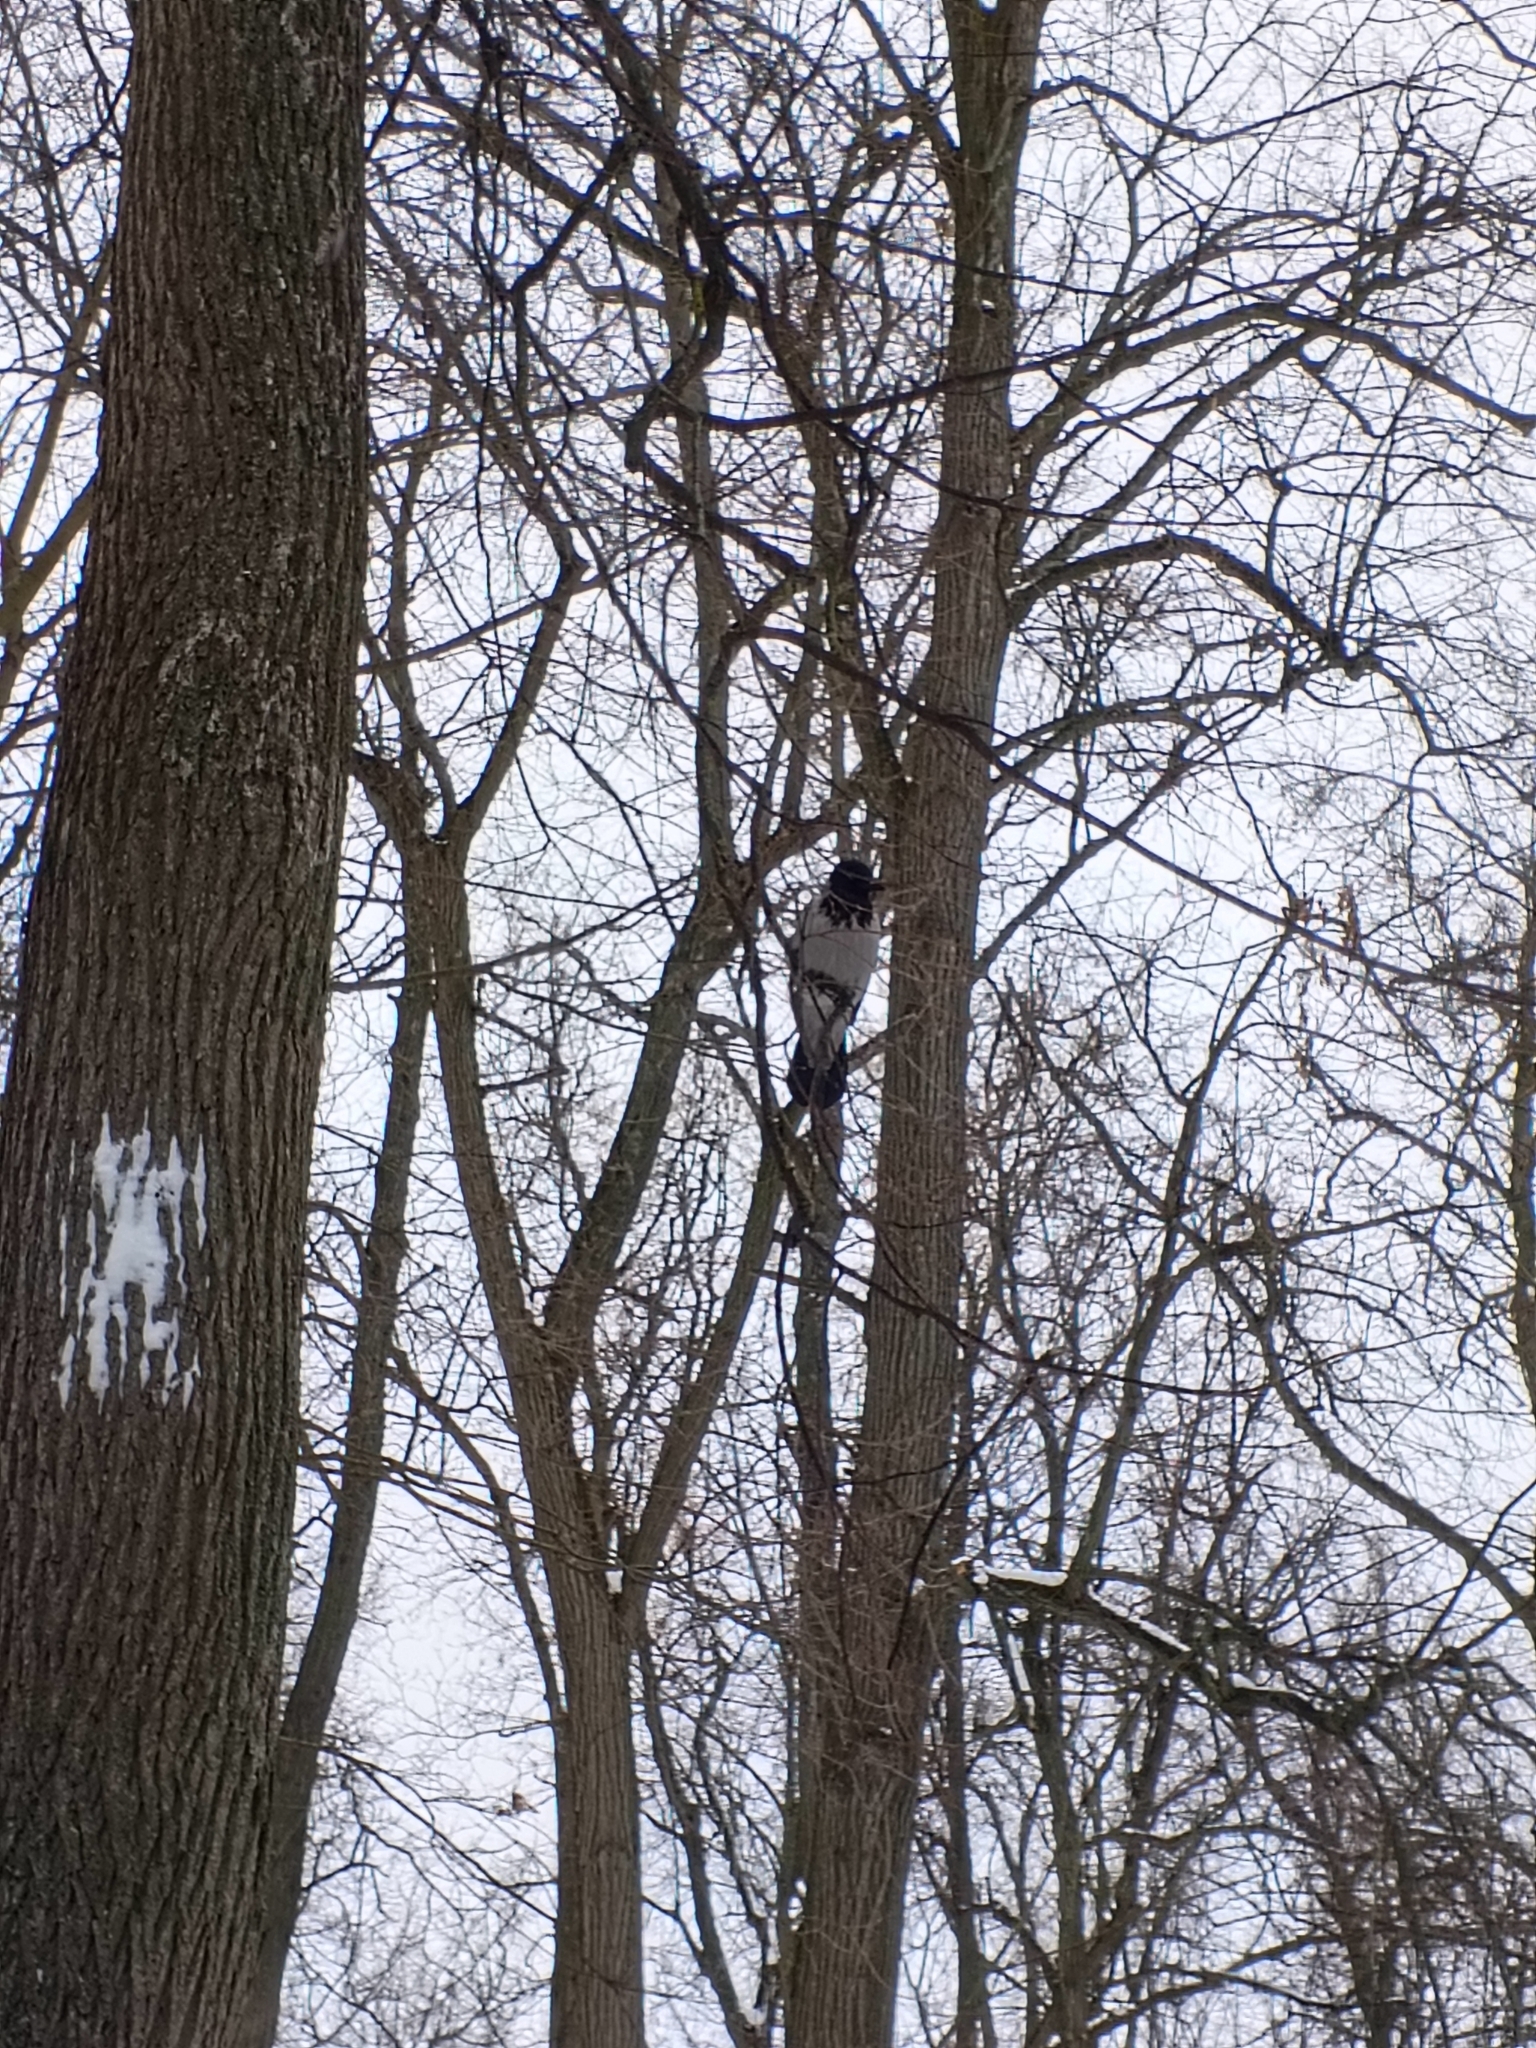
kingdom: Animalia
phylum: Chordata
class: Aves
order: Passeriformes
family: Corvidae
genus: Corvus
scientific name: Corvus cornix
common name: Hooded crow
